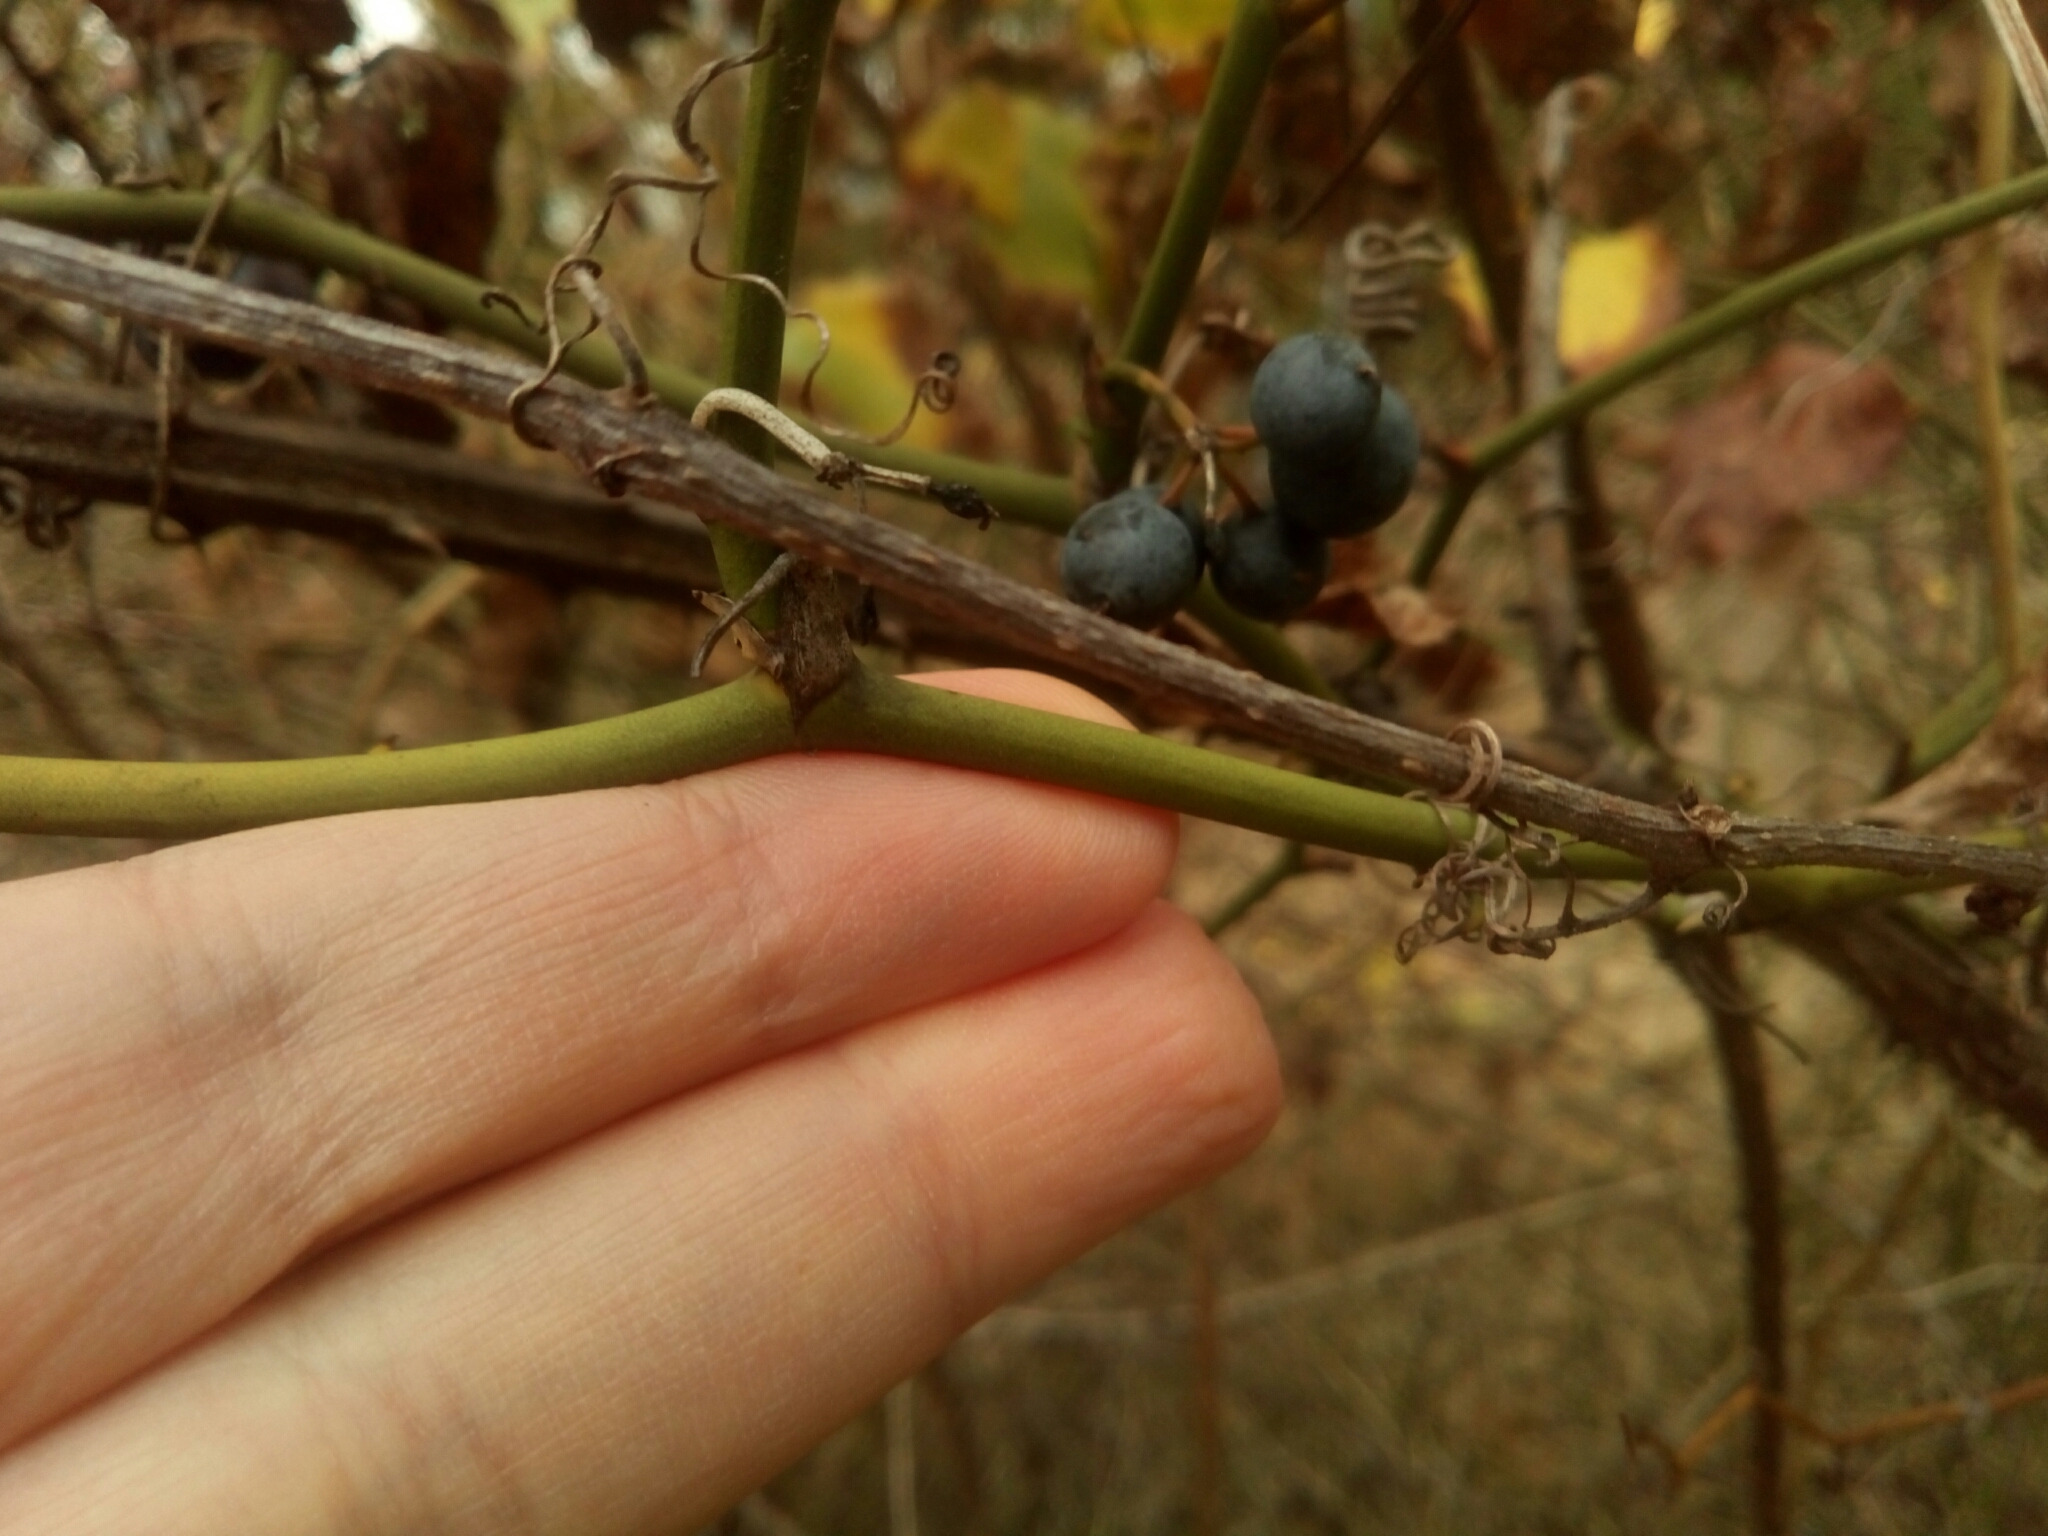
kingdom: Plantae
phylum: Tracheophyta
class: Liliopsida
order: Liliales
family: Smilacaceae
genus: Smilax
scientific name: Smilax rotundifolia
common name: Bullbriar
